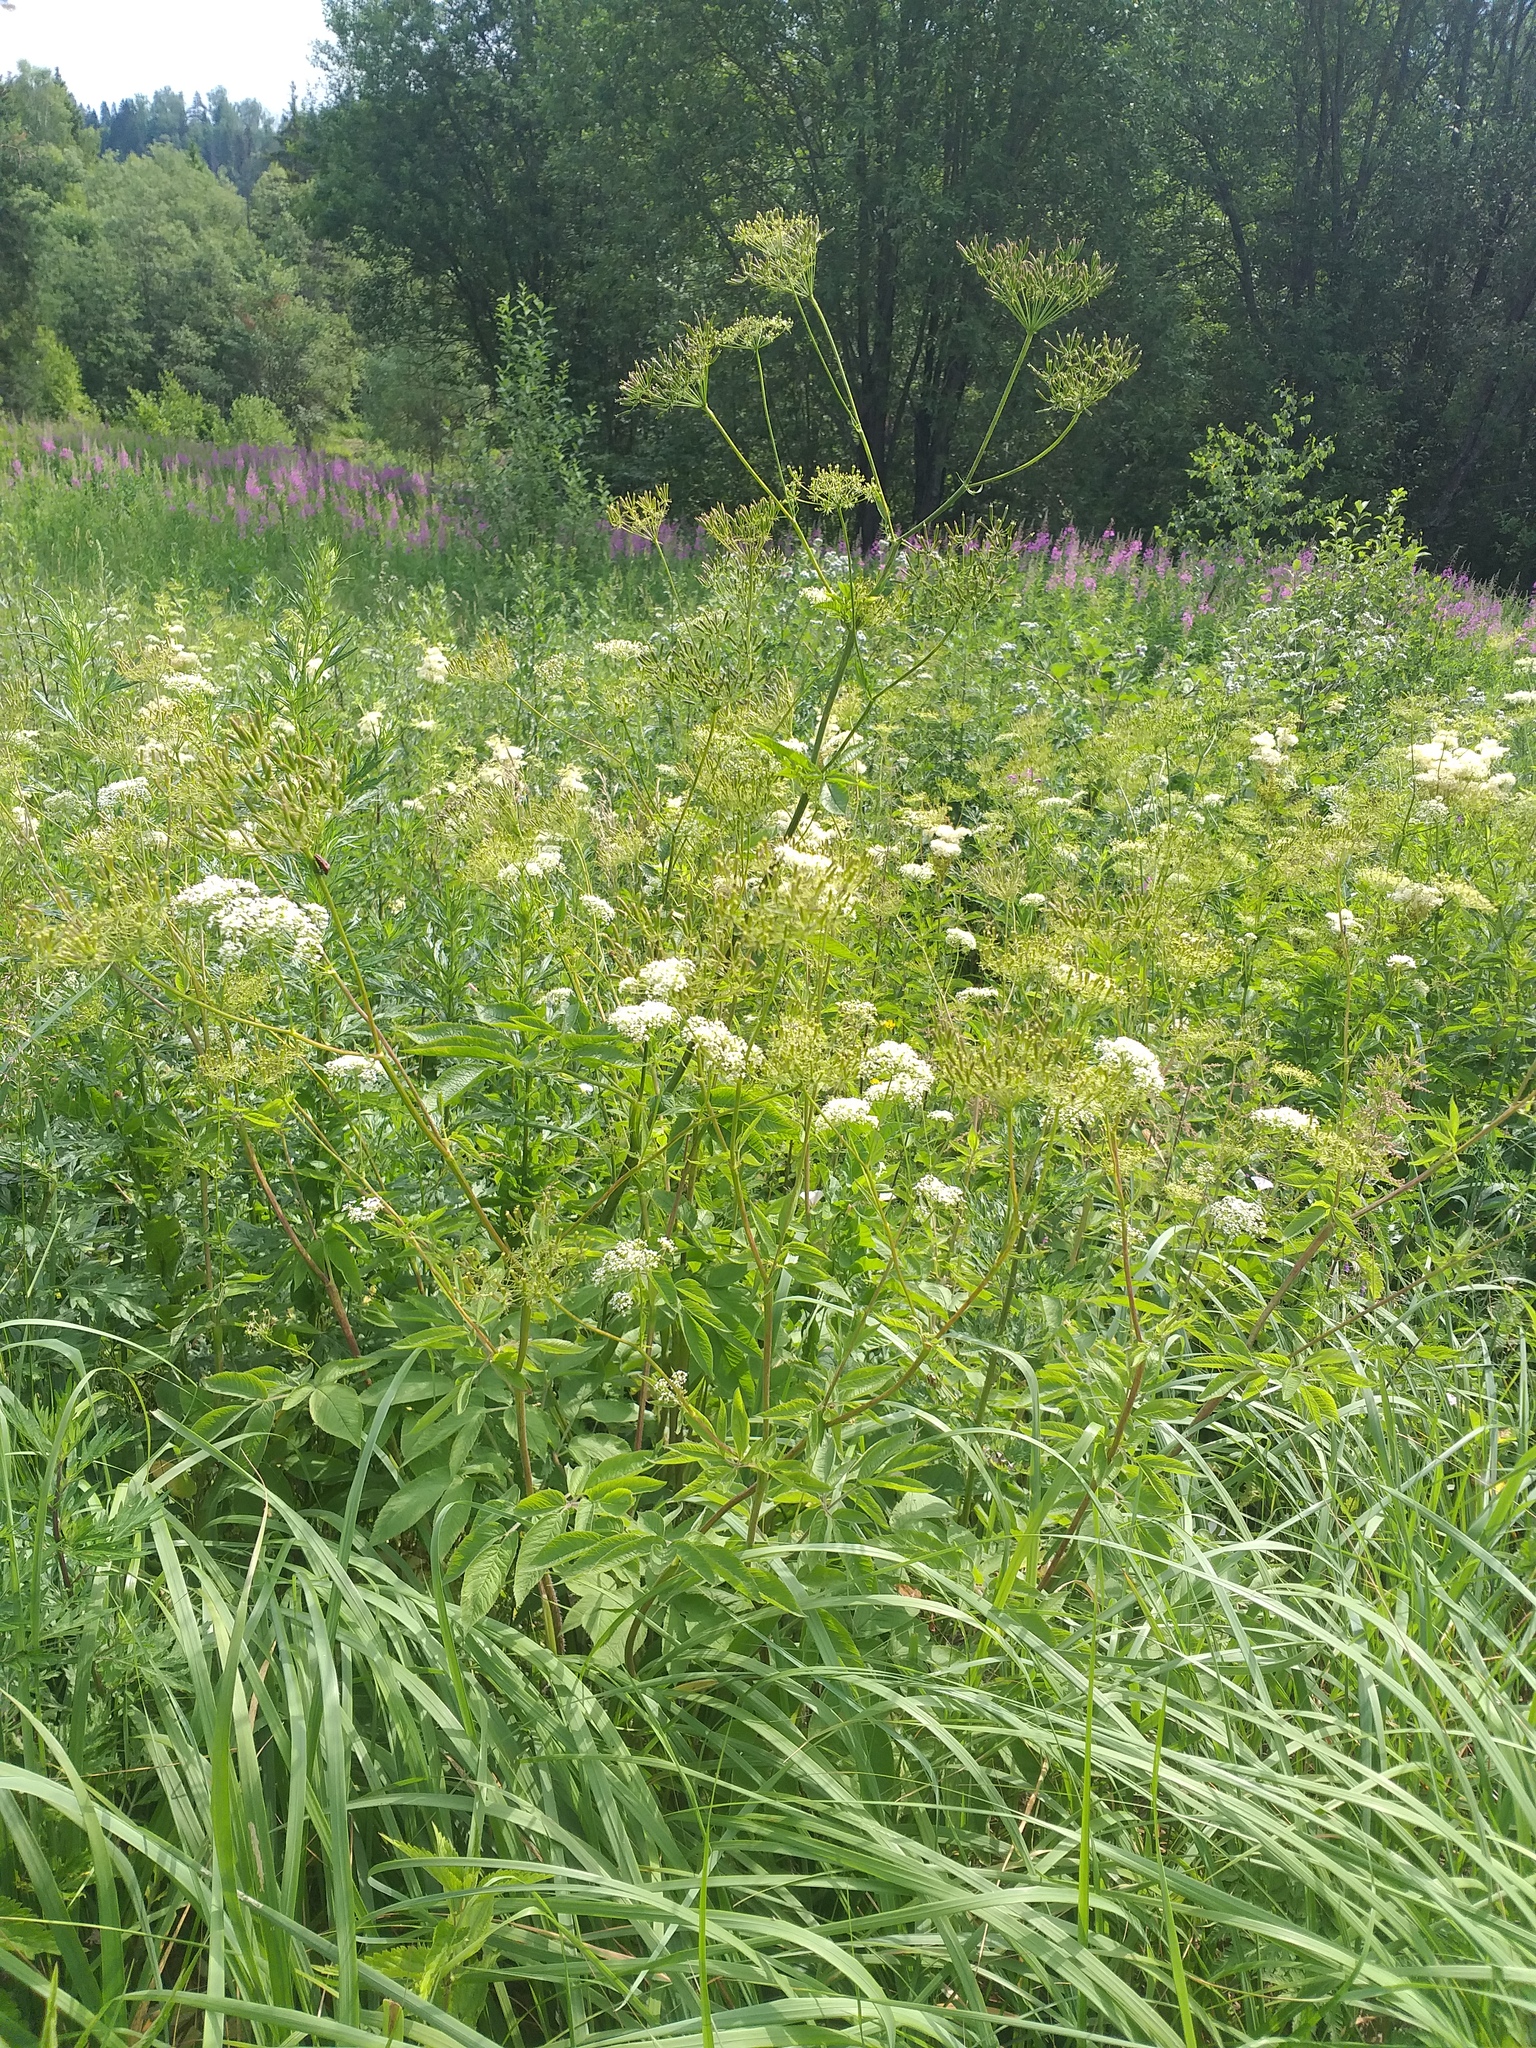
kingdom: Plantae
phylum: Tracheophyta
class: Magnoliopsida
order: Apiales
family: Apiaceae
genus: Chaerophyllum
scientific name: Chaerophyllum aromaticum
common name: Broadleaf chervil
